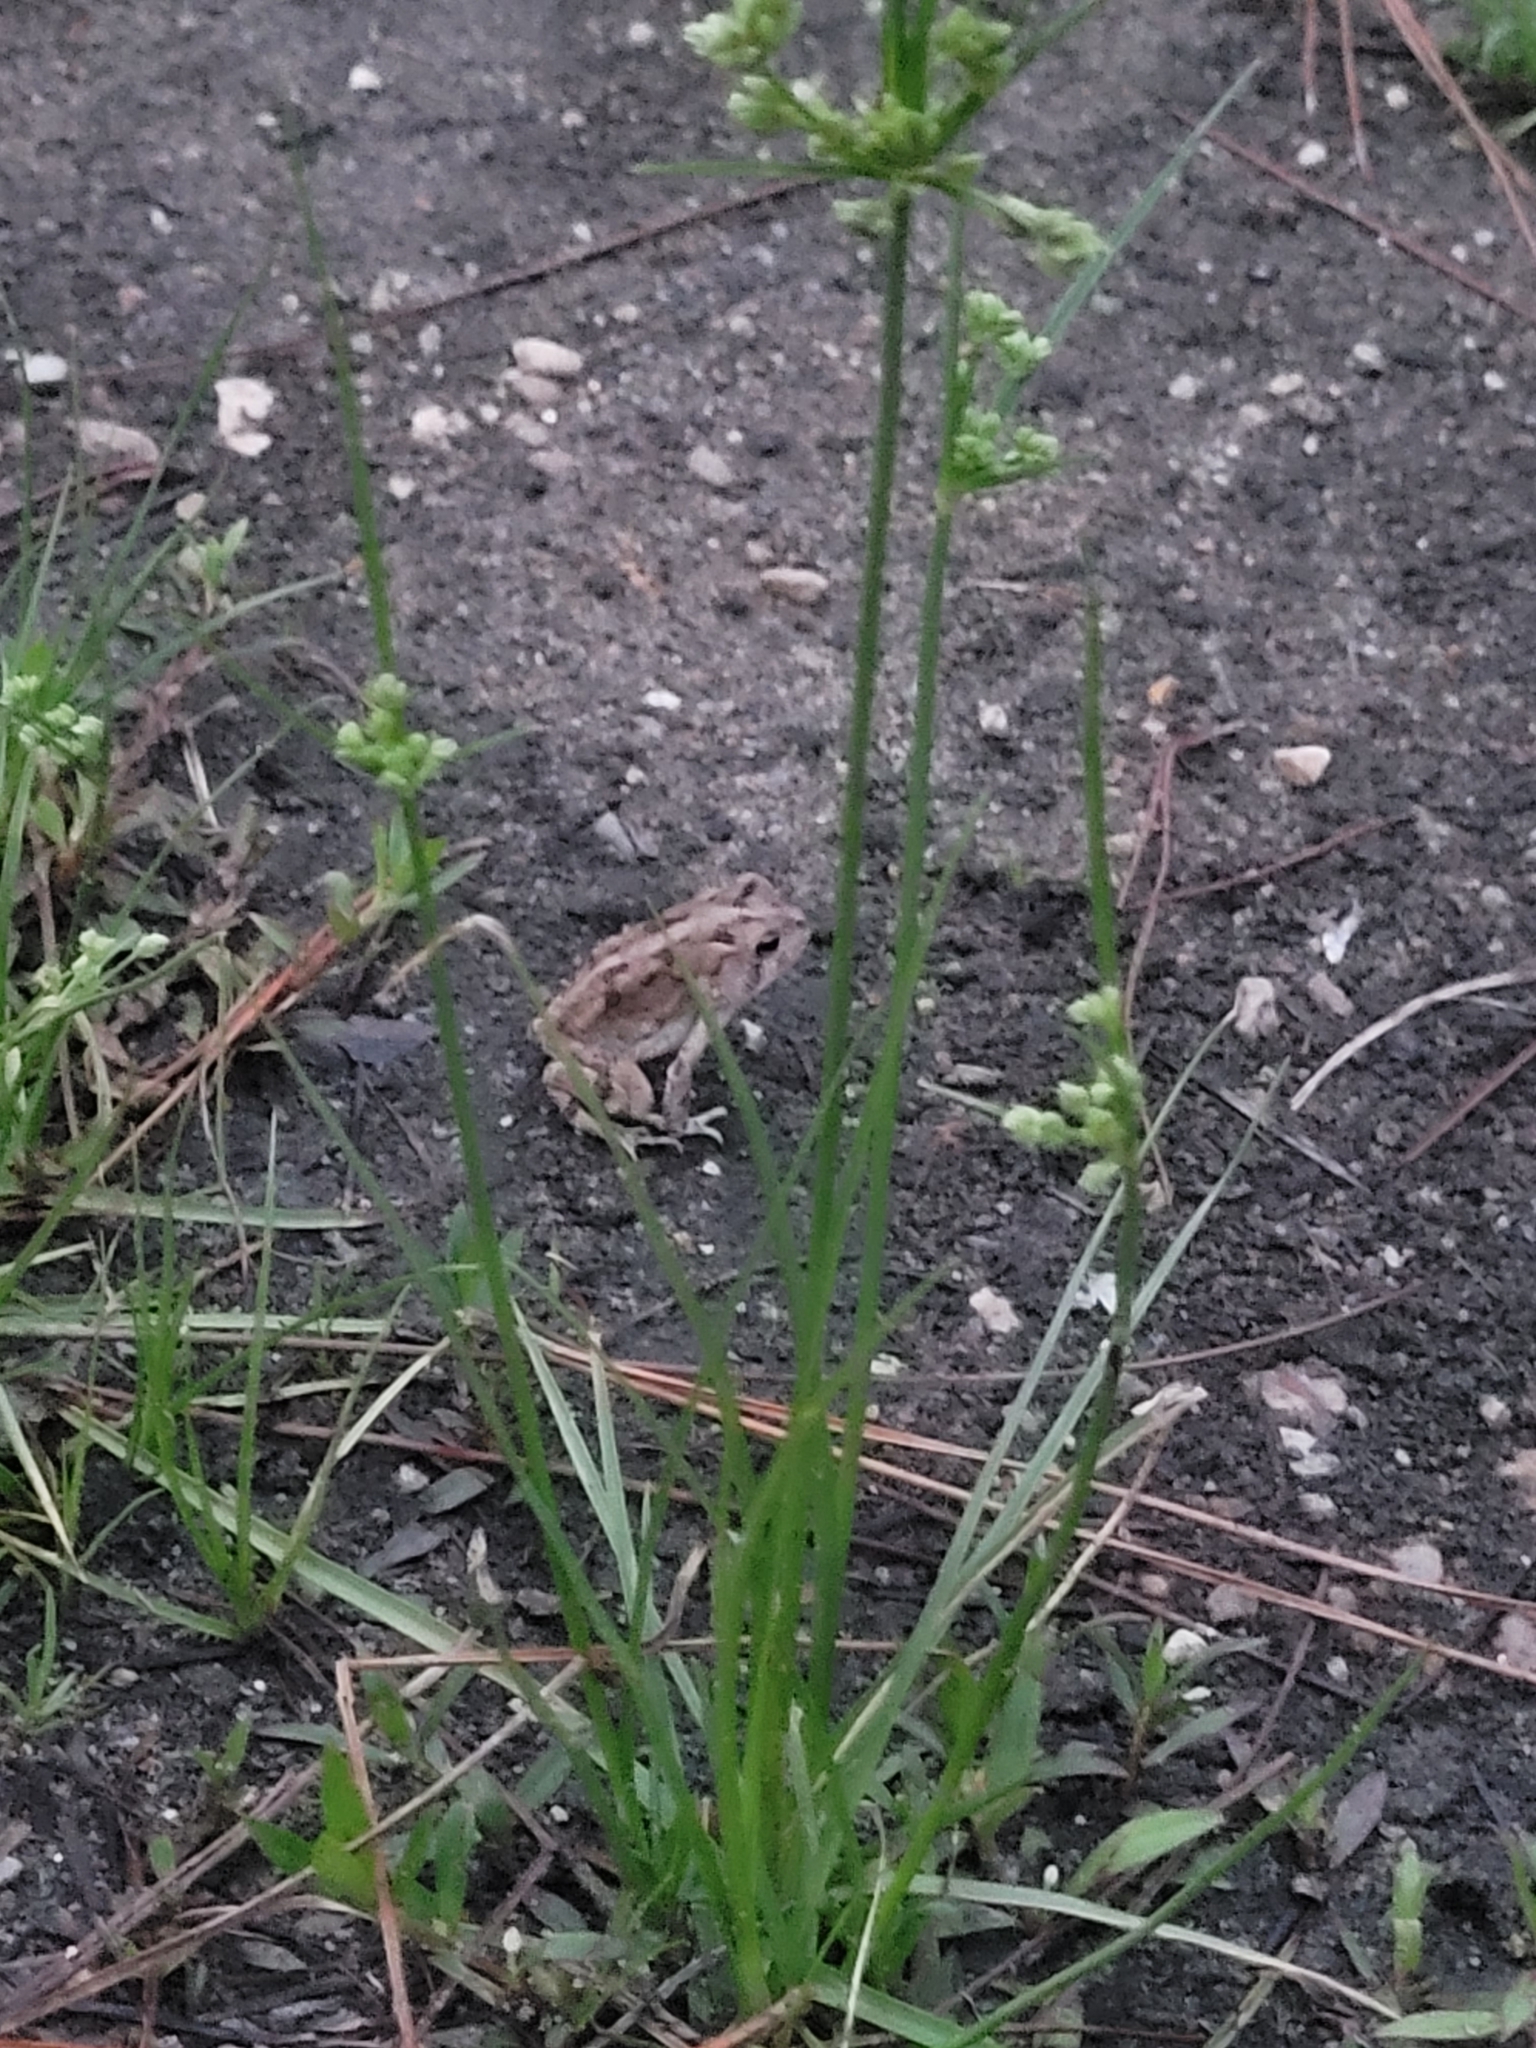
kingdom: Animalia
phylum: Chordata
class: Amphibia
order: Anura
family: Bufonidae
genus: Anaxyrus
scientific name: Anaxyrus terrestris
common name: Southern toad
